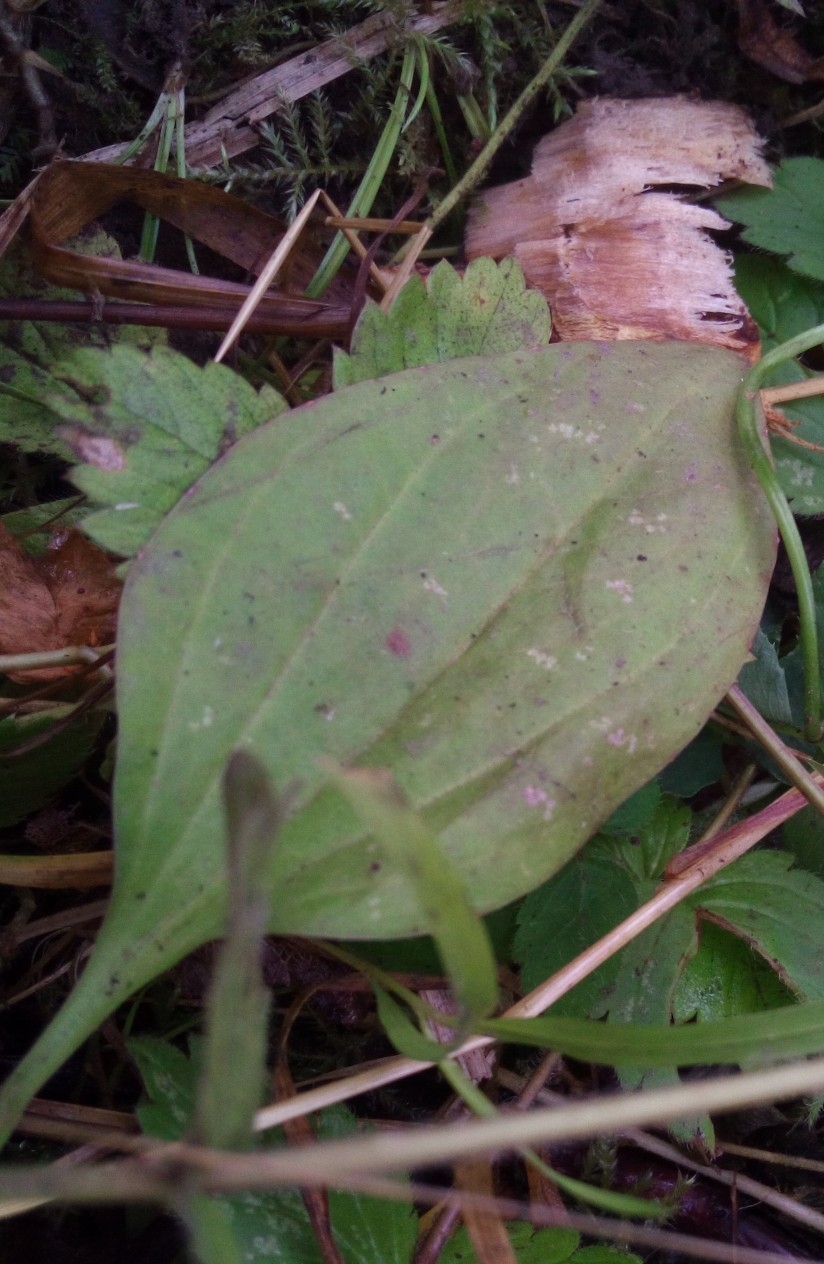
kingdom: Plantae
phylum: Tracheophyta
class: Magnoliopsida
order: Lamiales
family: Plantaginaceae
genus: Plantago
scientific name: Plantago major
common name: Common plantain
